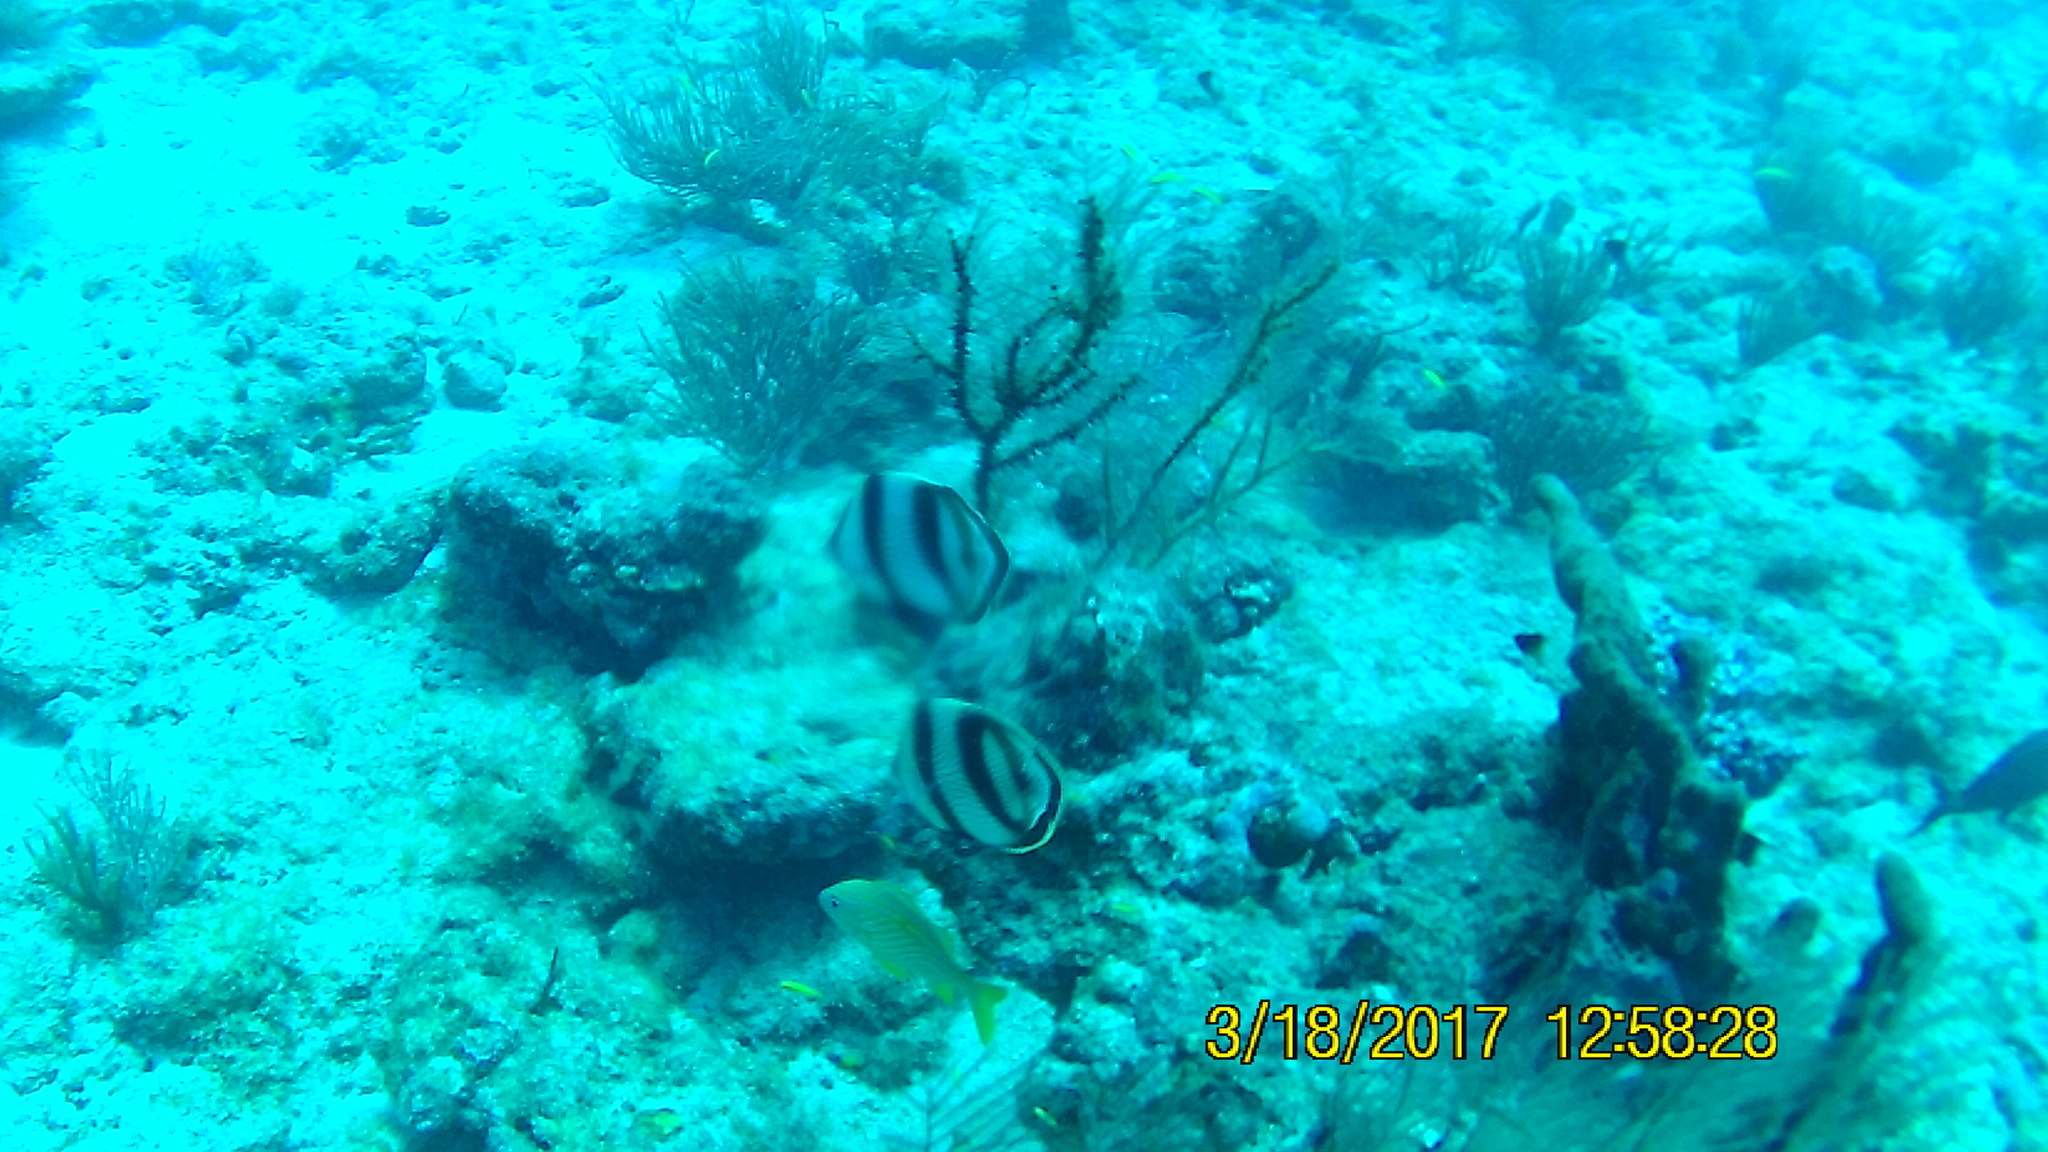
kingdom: Animalia
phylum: Chordata
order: Perciformes
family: Chaetodontidae
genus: Chaetodon
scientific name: Chaetodon striatus
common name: Banded butterflyfish
